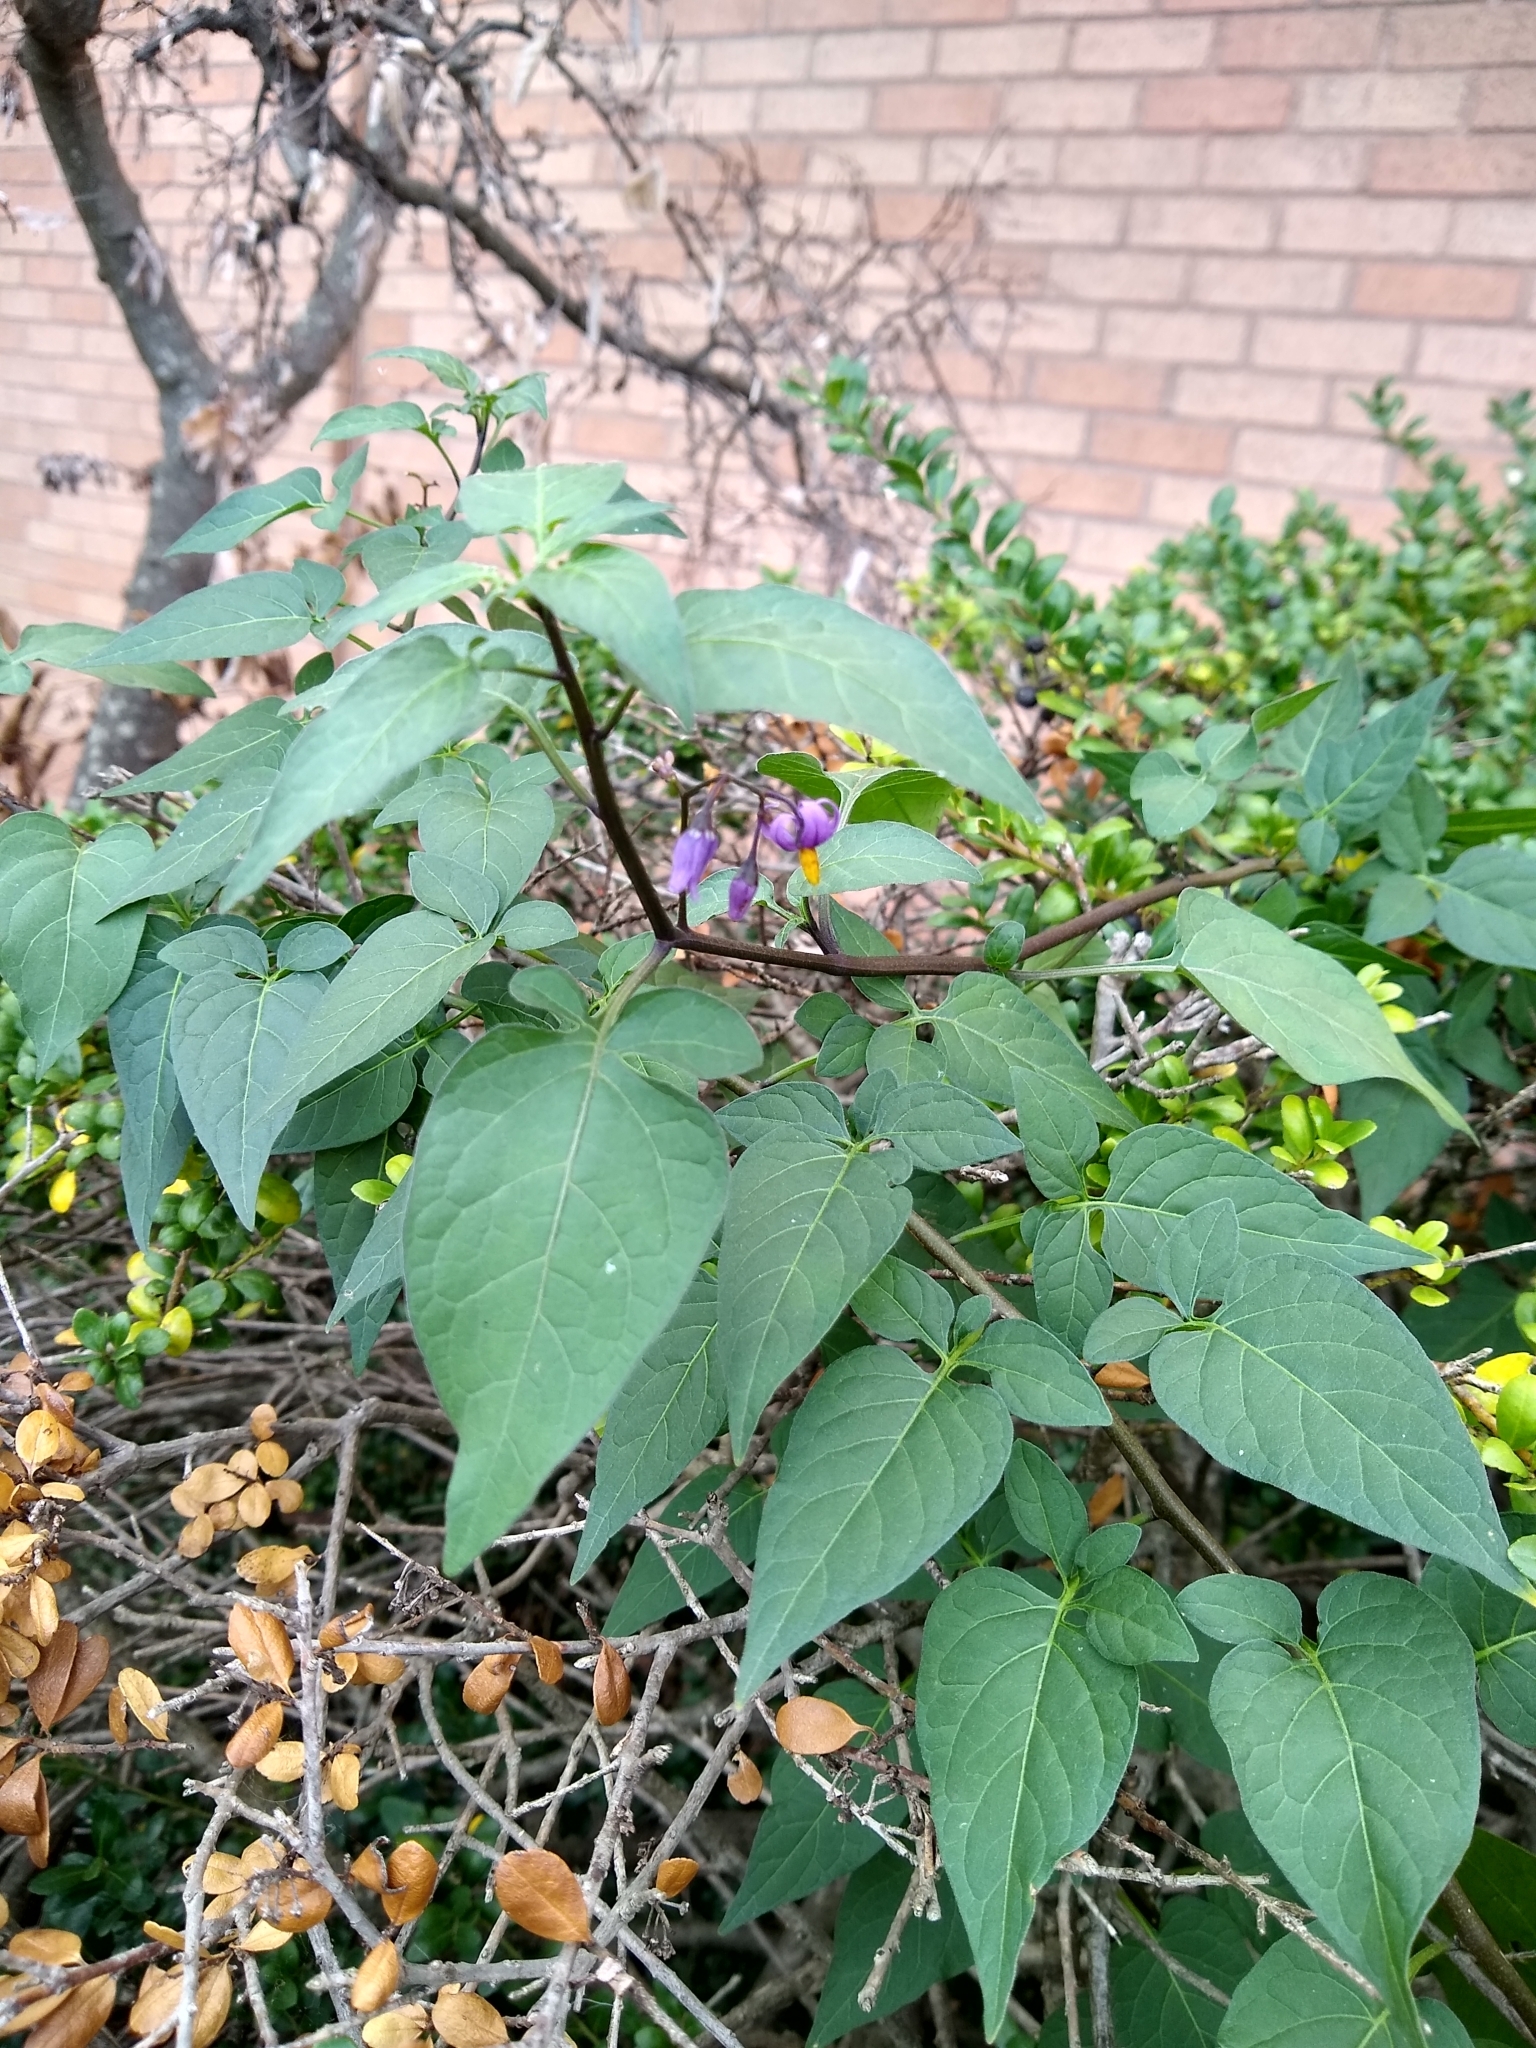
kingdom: Plantae
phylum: Tracheophyta
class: Magnoliopsida
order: Solanales
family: Solanaceae
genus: Solanum
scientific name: Solanum dulcamara
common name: Climbing nightshade
